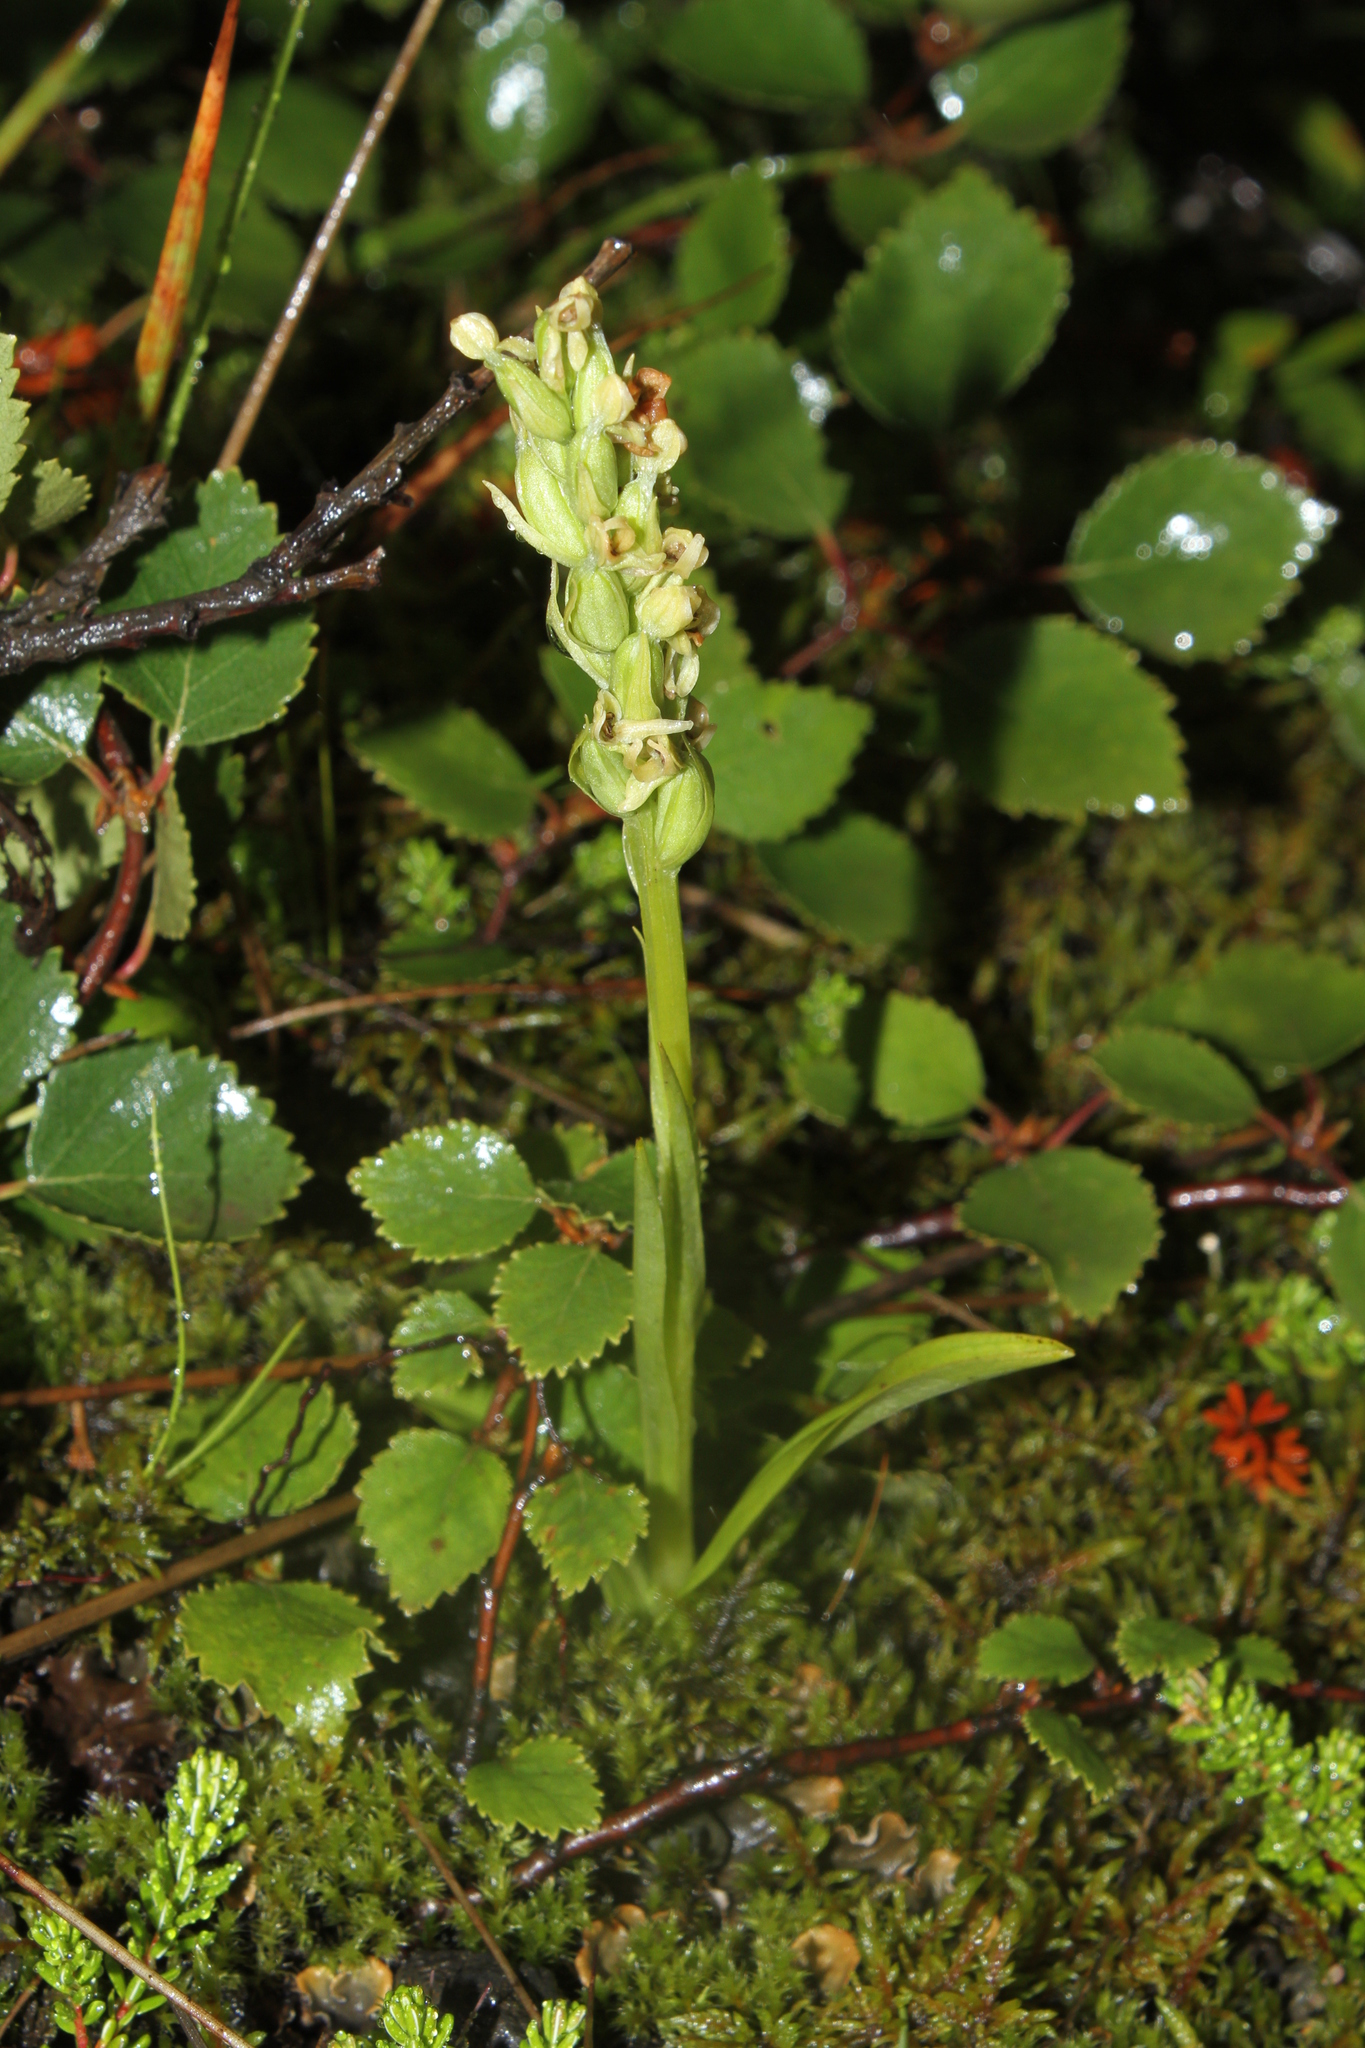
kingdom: Plantae
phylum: Tracheophyta
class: Liliopsida
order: Asparagales
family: Orchidaceae
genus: Platanthera
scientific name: Platanthera hyperborea
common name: Northern green orchid
